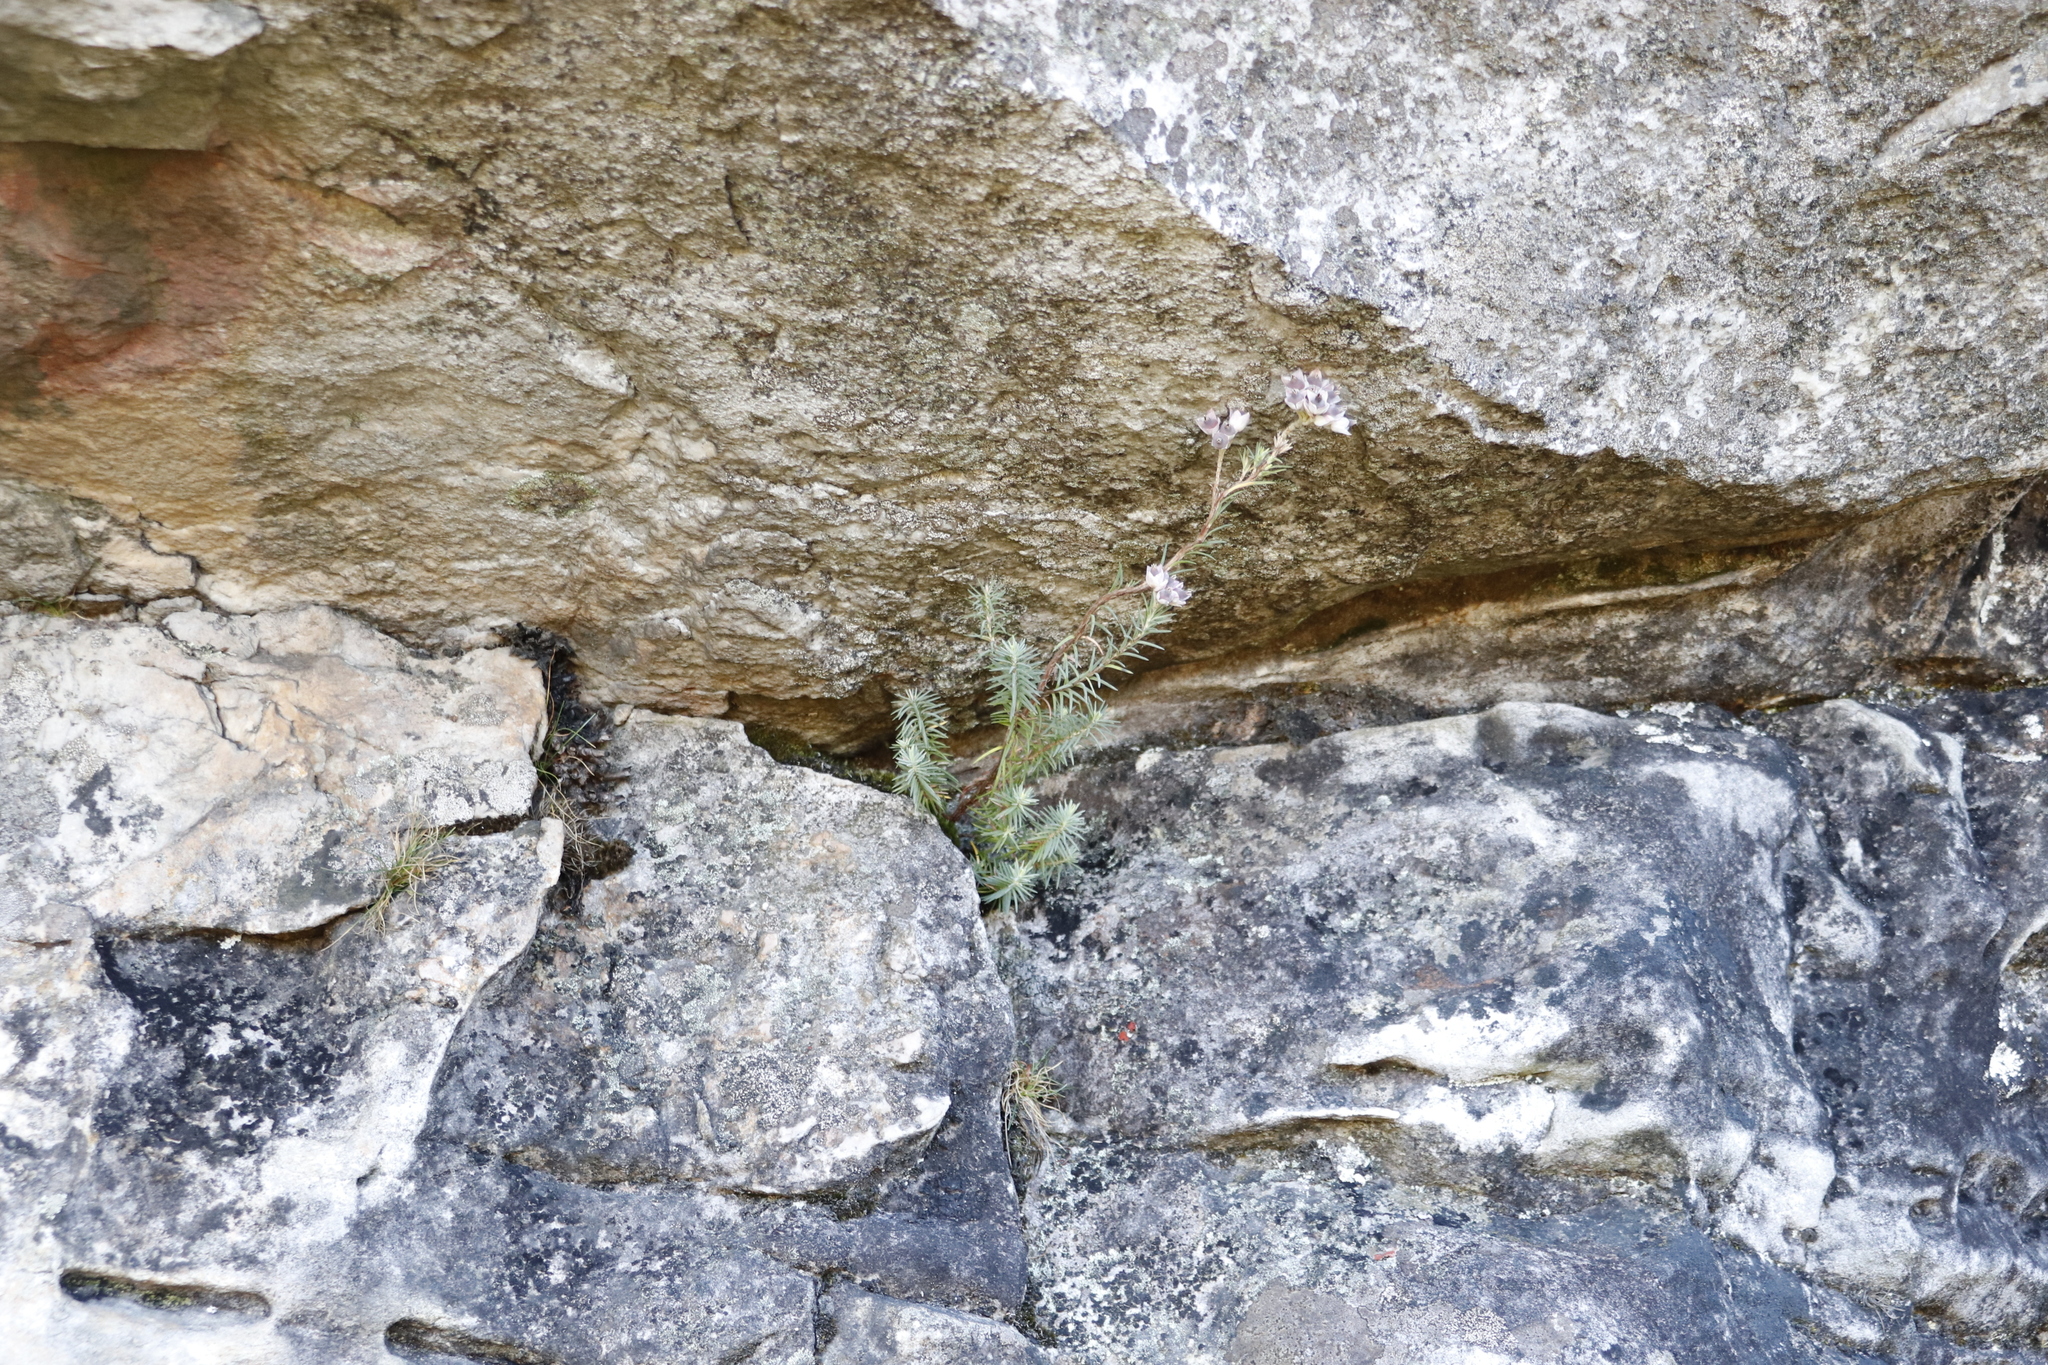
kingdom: Plantae
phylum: Tracheophyta
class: Magnoliopsida
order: Ericales
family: Ericaceae
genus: Erica
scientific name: Erica glauca
